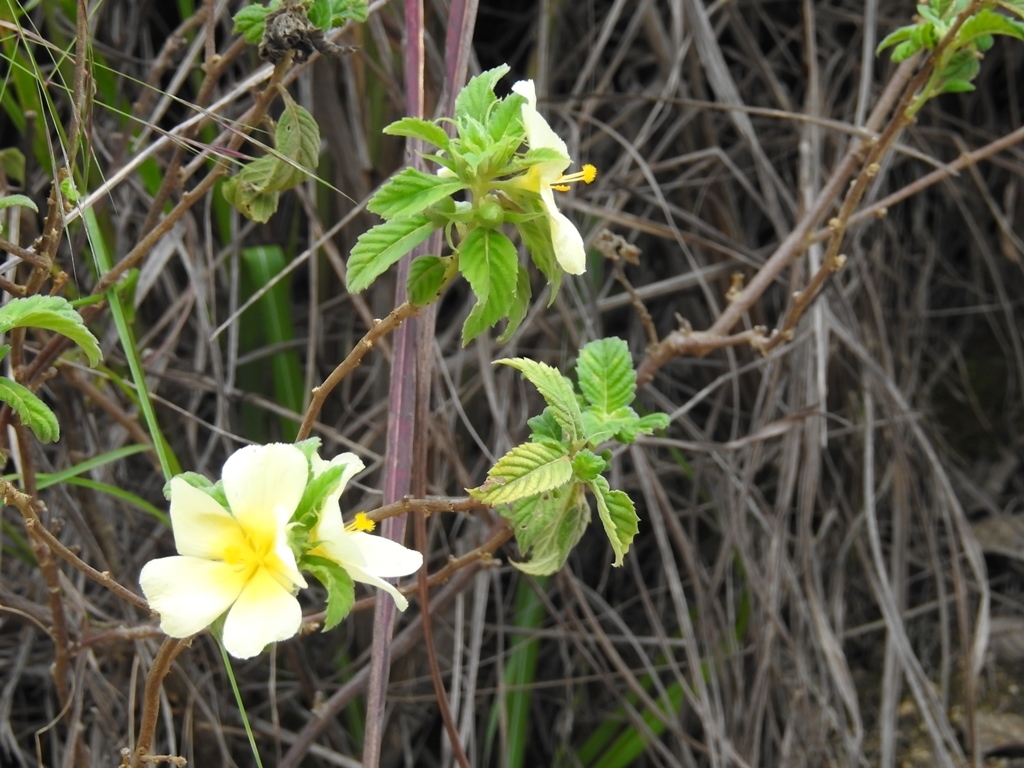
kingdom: Plantae
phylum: Tracheophyta
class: Magnoliopsida
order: Malpighiales
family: Turneraceae
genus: Turnera
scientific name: Turnera ulmifolia
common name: Ramgoat dashalong
